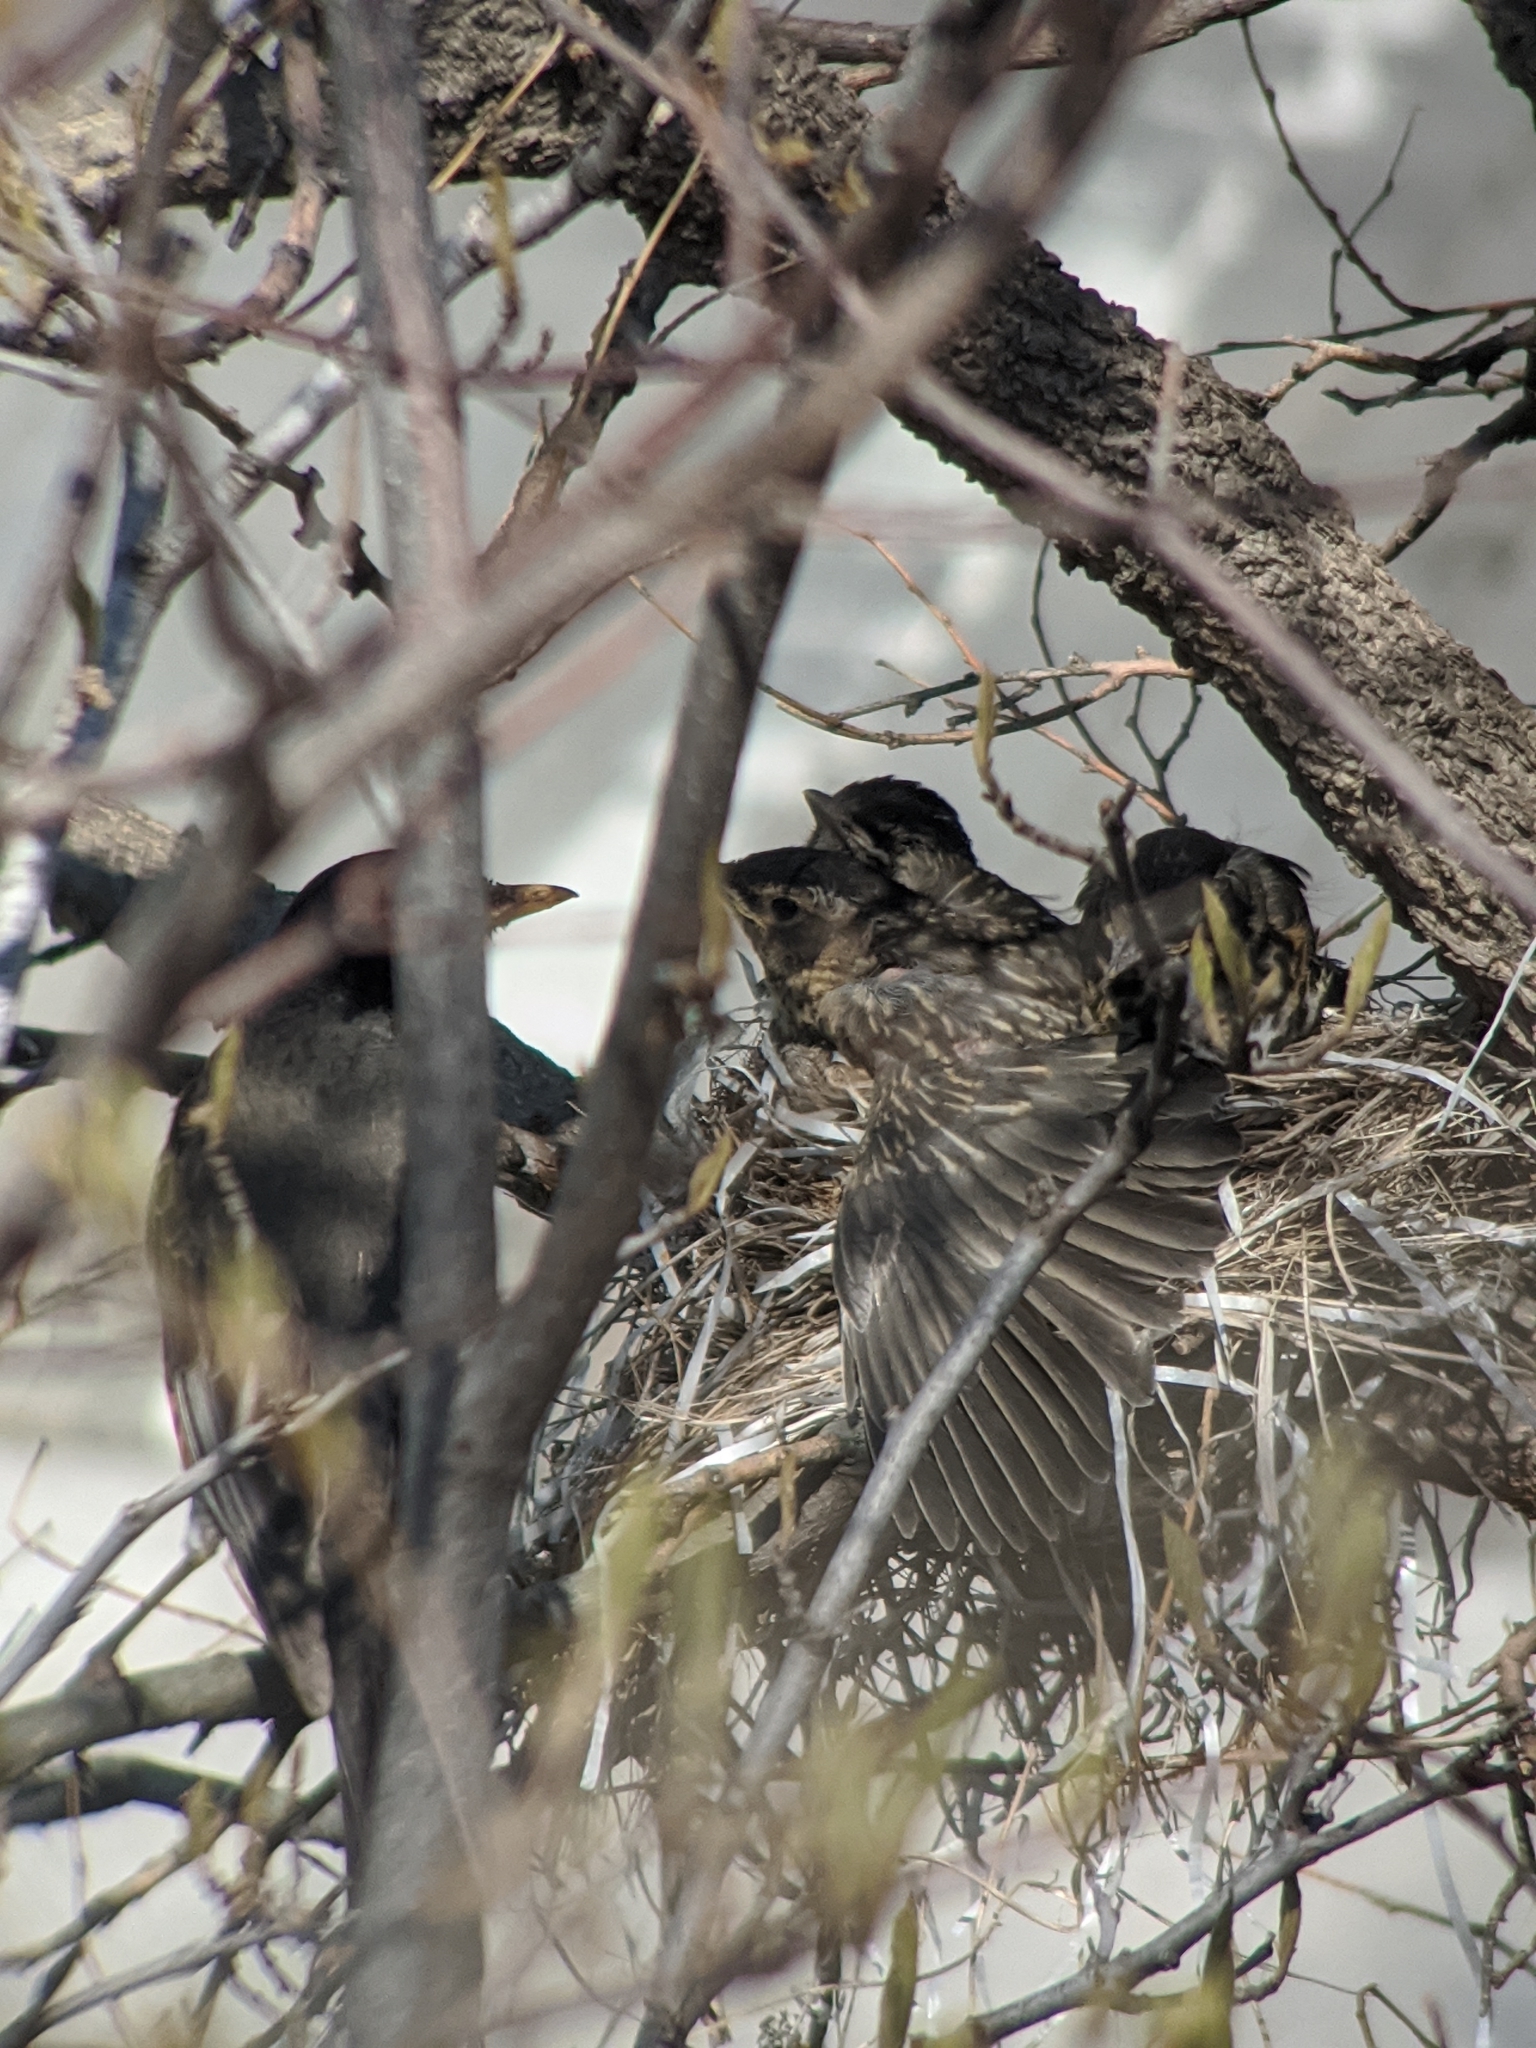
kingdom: Animalia
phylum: Chordata
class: Aves
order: Passeriformes
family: Turdidae
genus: Turdus
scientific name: Turdus migratorius
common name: American robin
